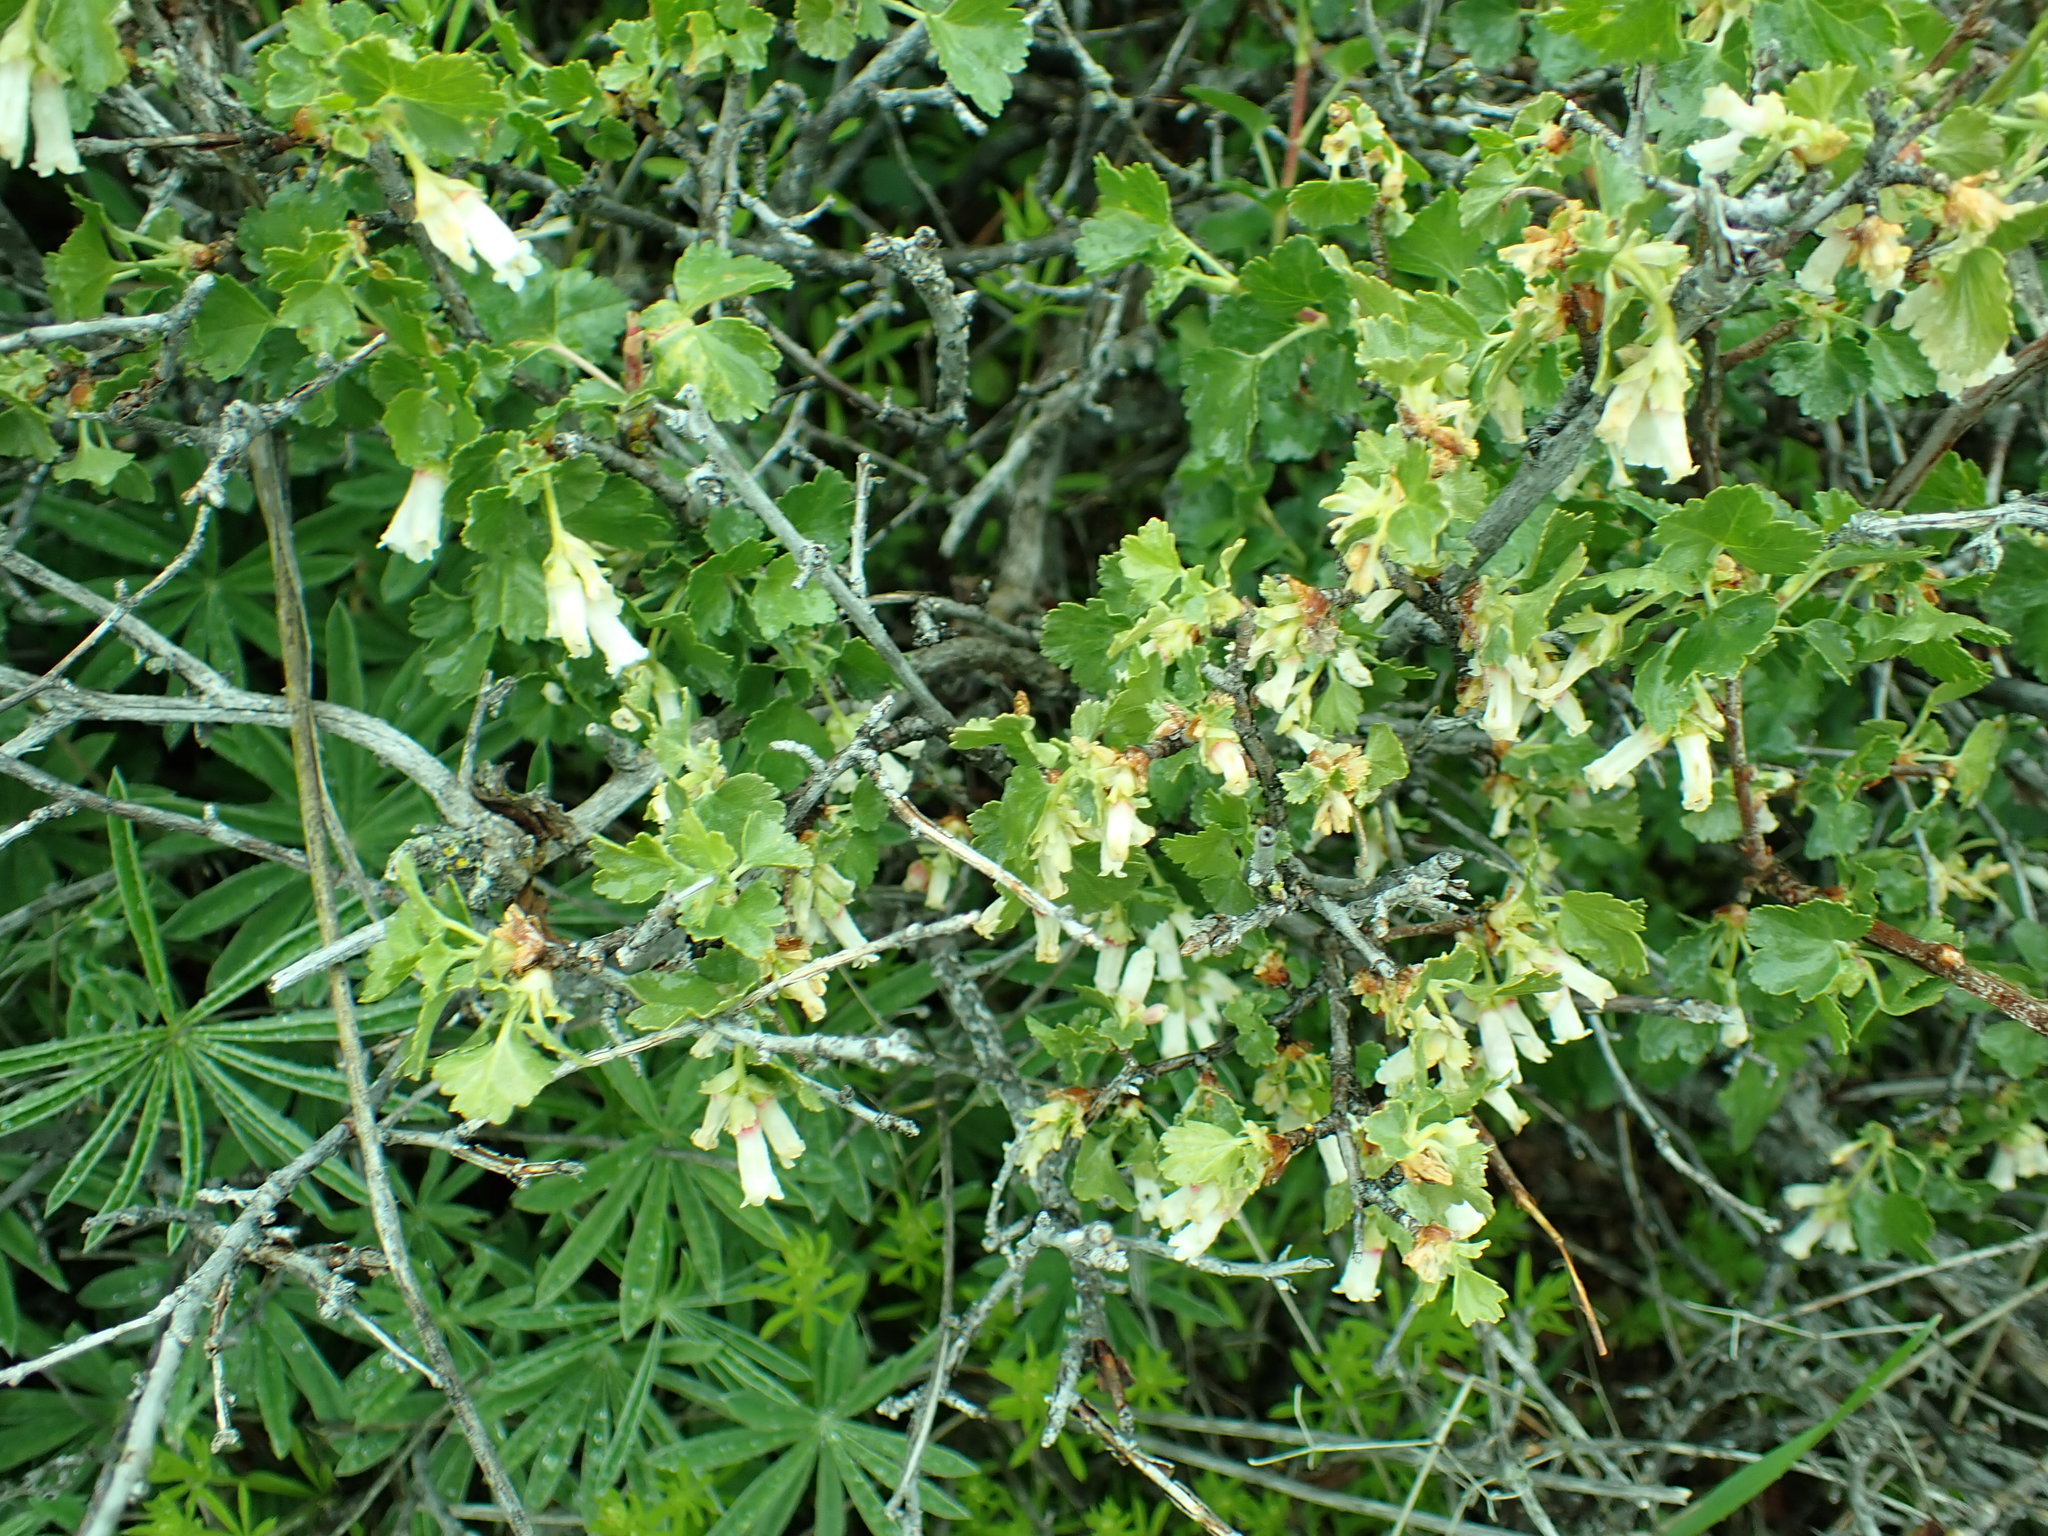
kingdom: Plantae
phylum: Tracheophyta
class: Magnoliopsida
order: Saxifragales
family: Grossulariaceae
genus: Ribes
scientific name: Ribes cereum
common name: Wax currant
